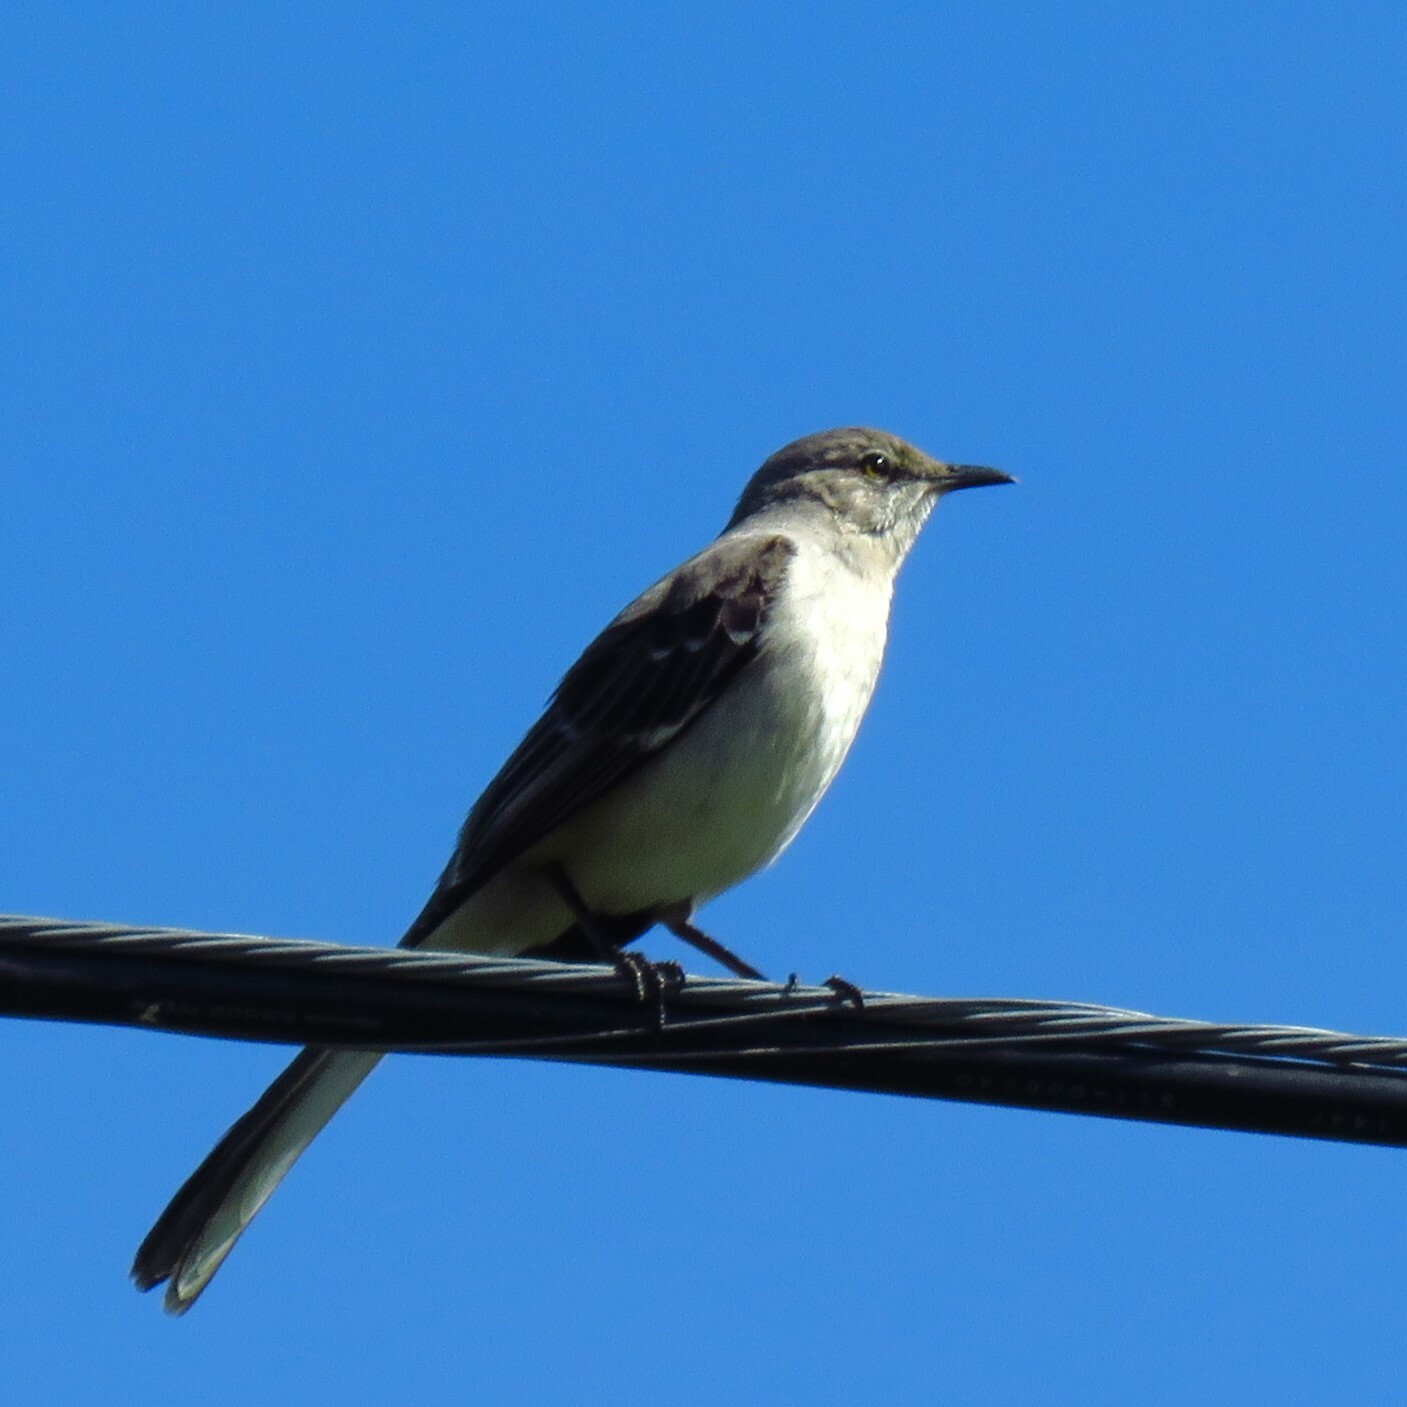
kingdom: Animalia
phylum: Chordata
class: Aves
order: Passeriformes
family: Mimidae
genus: Mimus
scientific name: Mimus polyglottos
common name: Northern mockingbird
